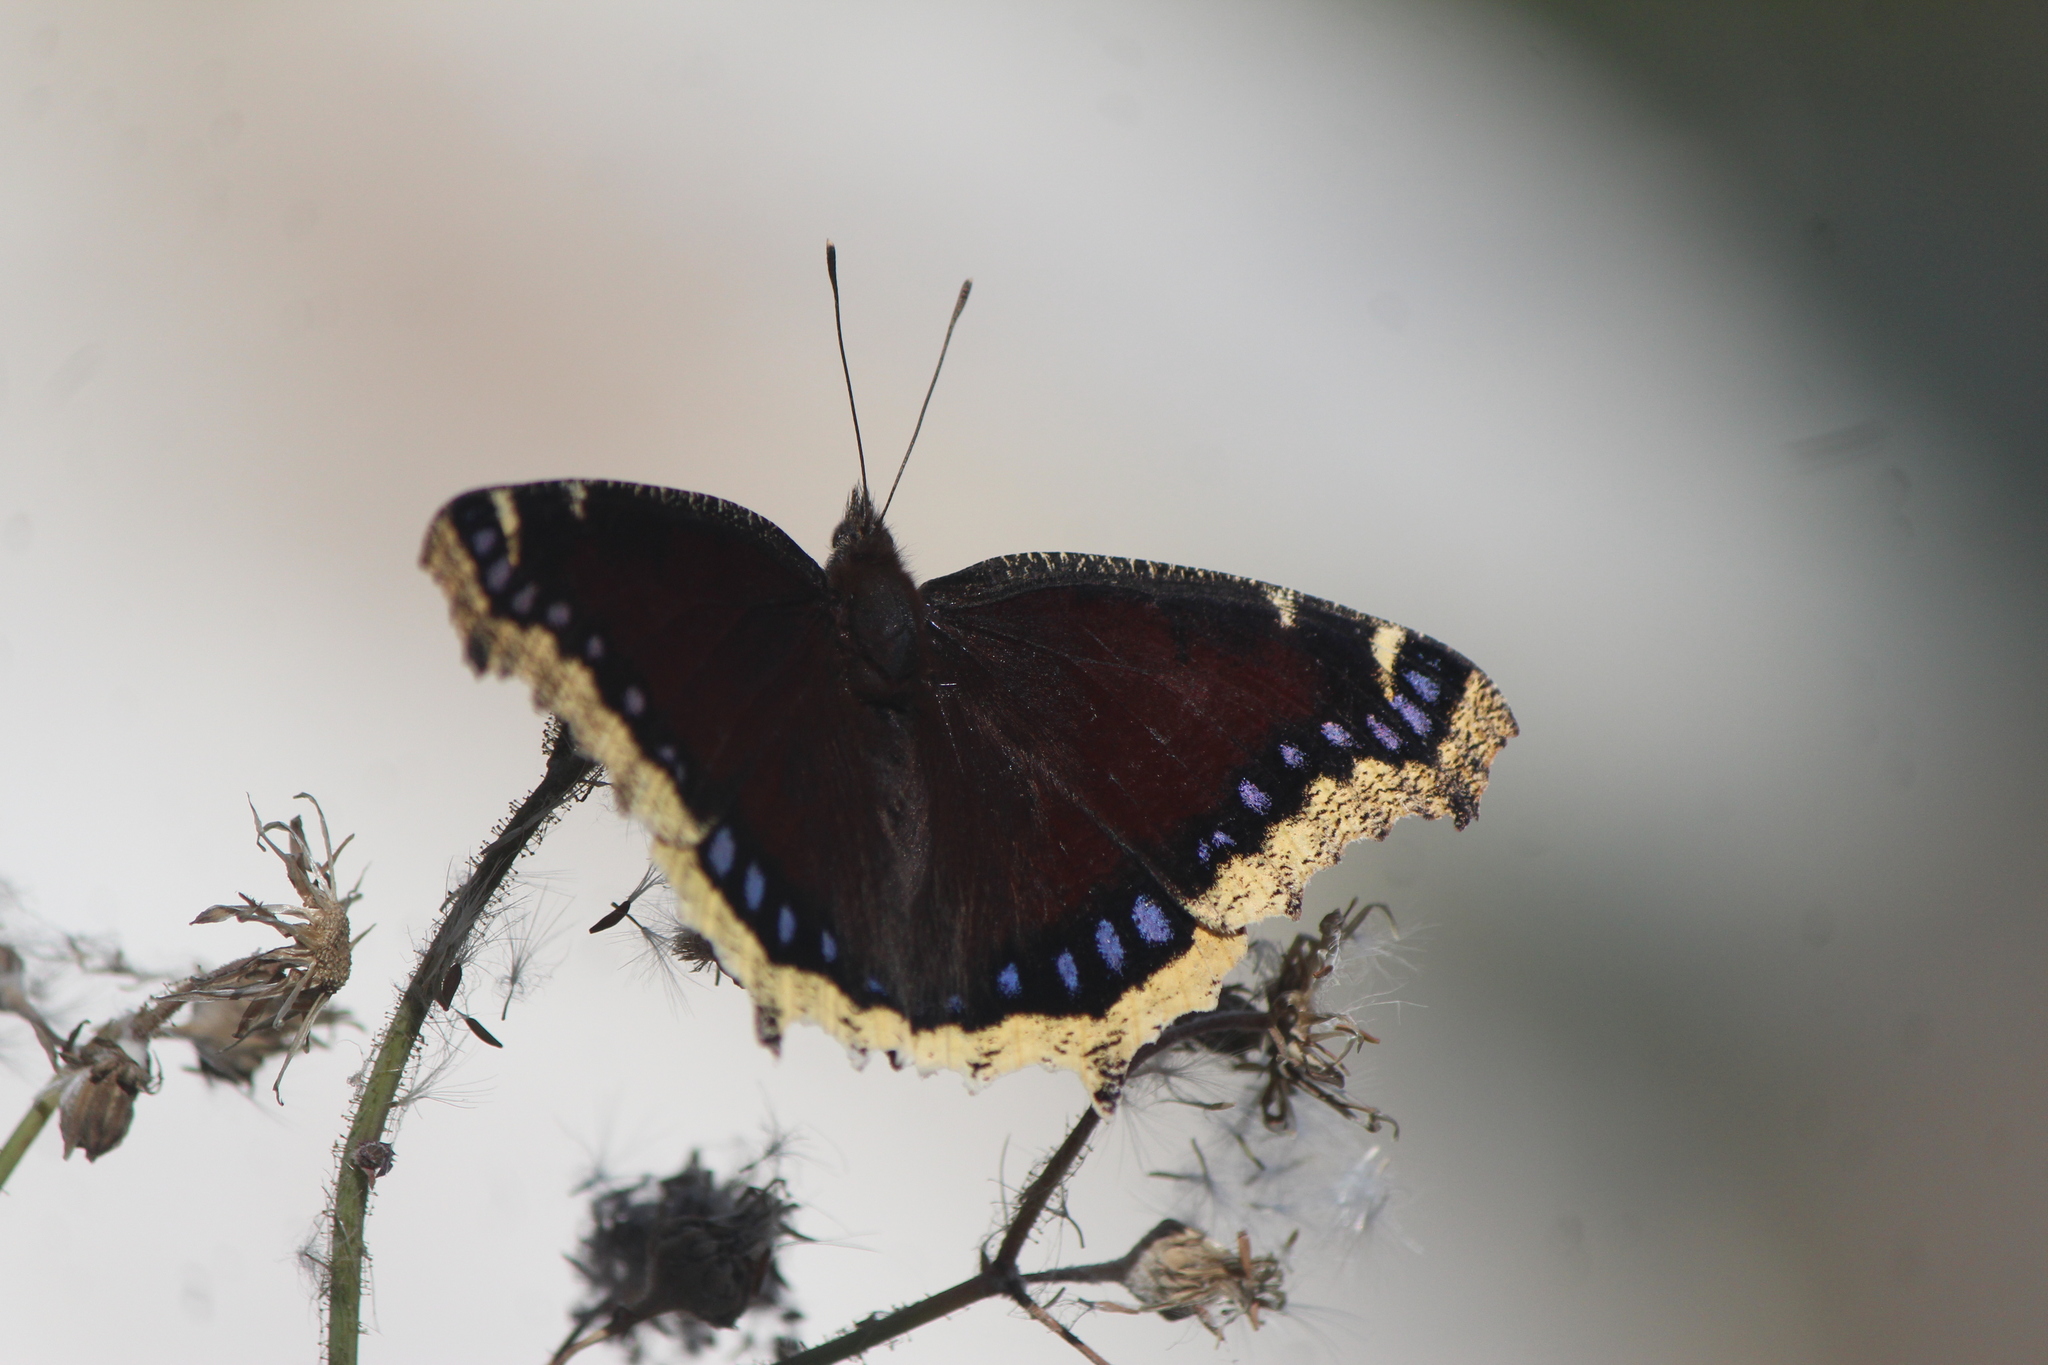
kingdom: Animalia
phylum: Arthropoda
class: Insecta
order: Lepidoptera
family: Nymphalidae
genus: Nymphalis
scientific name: Nymphalis antiopa
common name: Camberwell beauty
